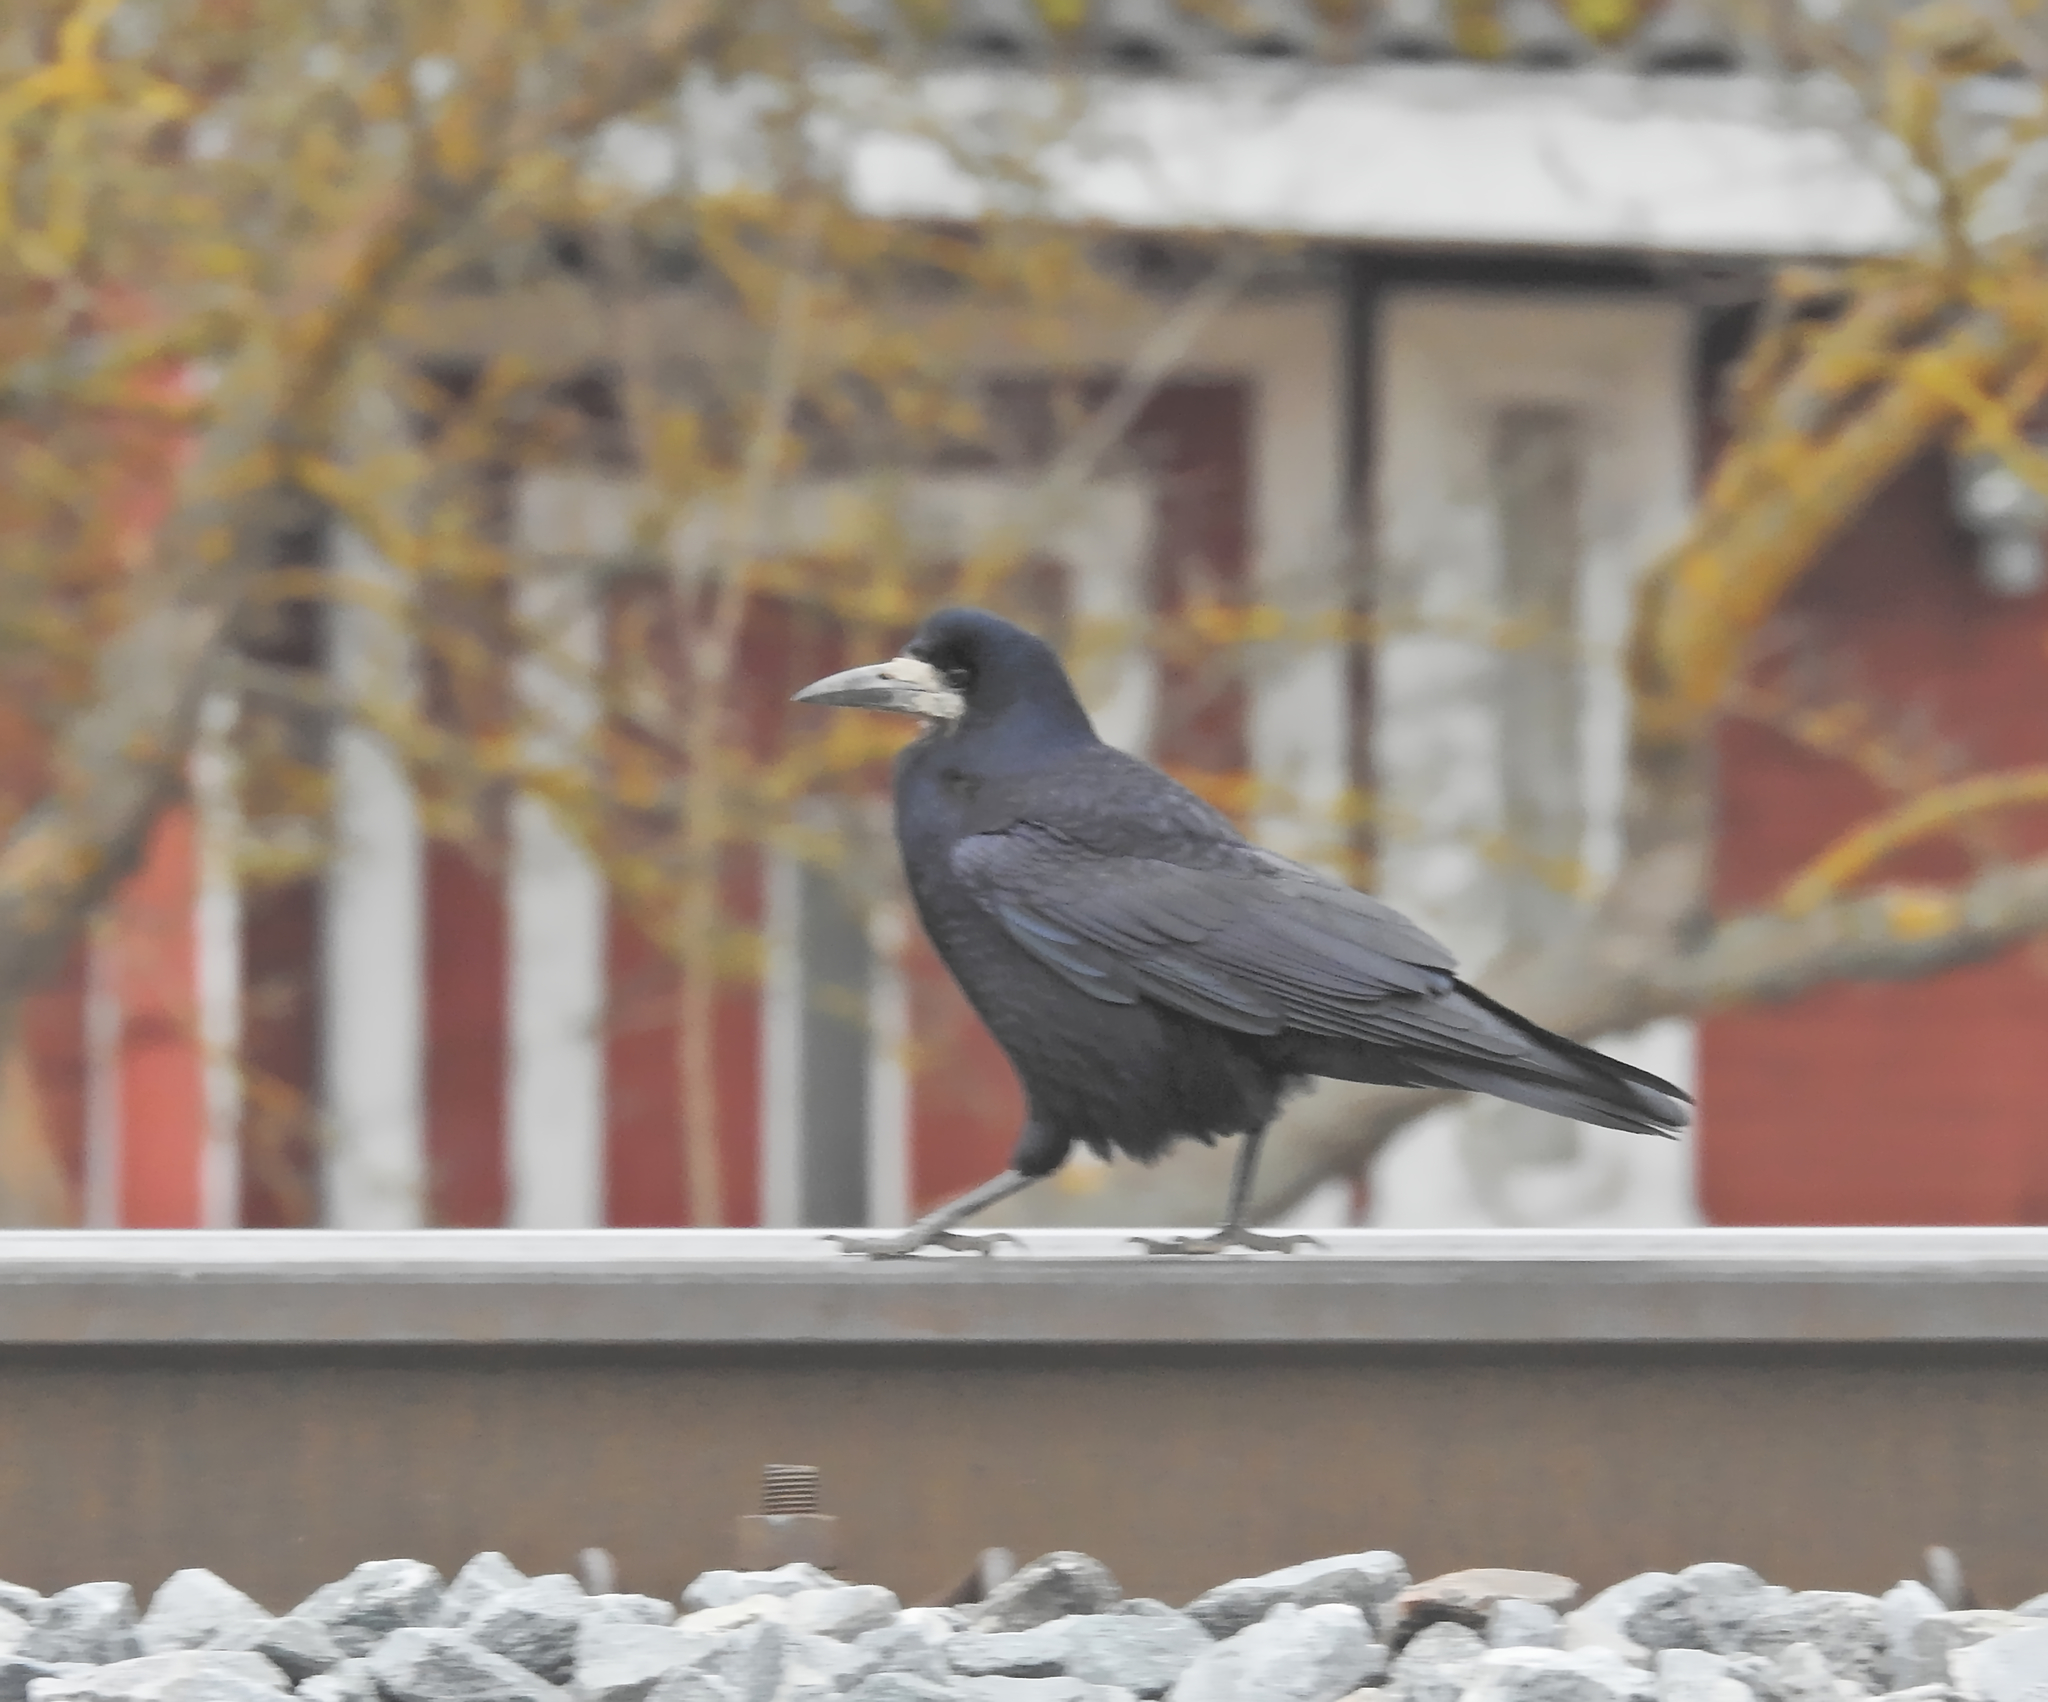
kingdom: Animalia
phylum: Chordata
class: Aves
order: Passeriformes
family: Corvidae
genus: Corvus
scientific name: Corvus frugilegus
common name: Rook
